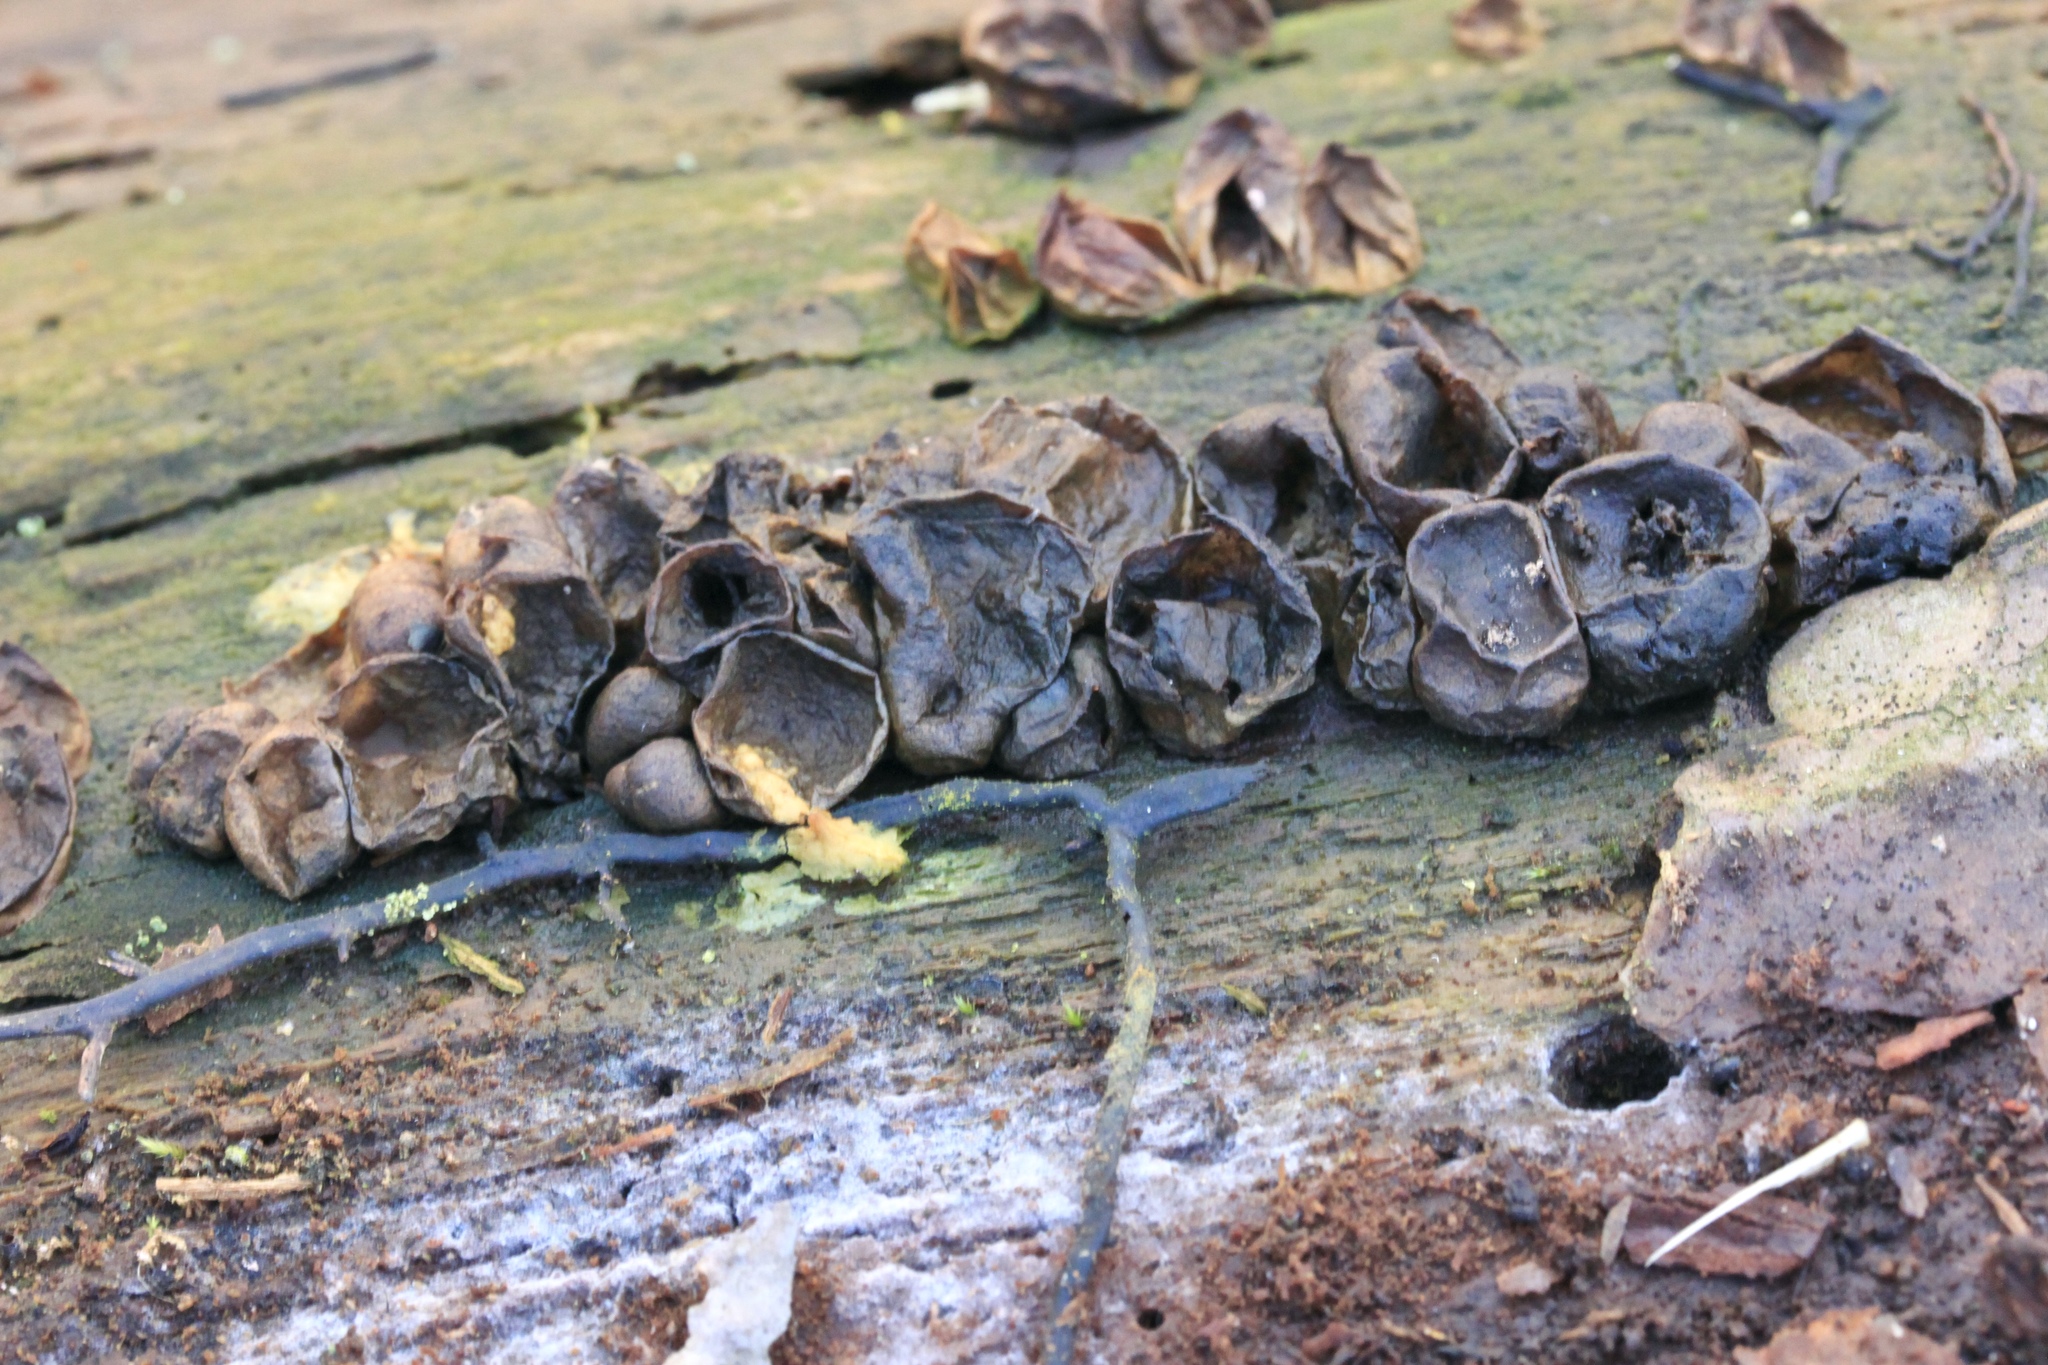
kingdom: Protozoa
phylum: Mycetozoa
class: Myxomycetes
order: Cribrariales
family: Tubiferaceae
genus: Lycogala
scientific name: Lycogala epidendrum
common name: Wolf's milk
